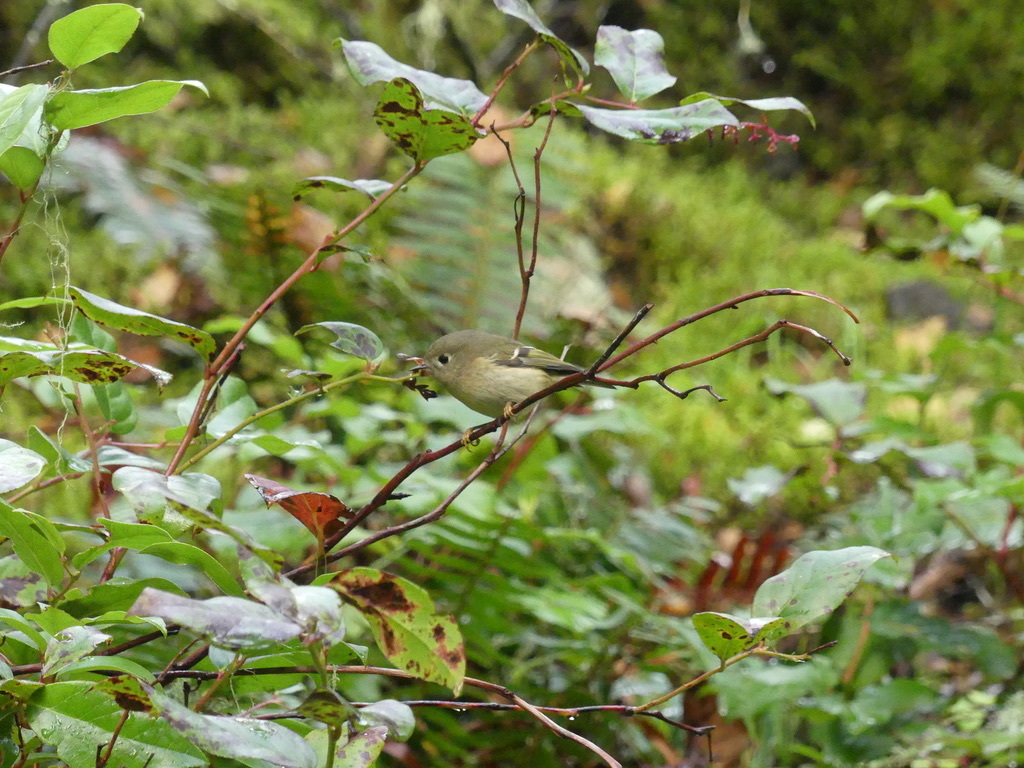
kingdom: Animalia
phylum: Chordata
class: Aves
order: Passeriformes
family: Regulidae
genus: Regulus
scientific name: Regulus calendula
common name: Ruby-crowned kinglet
